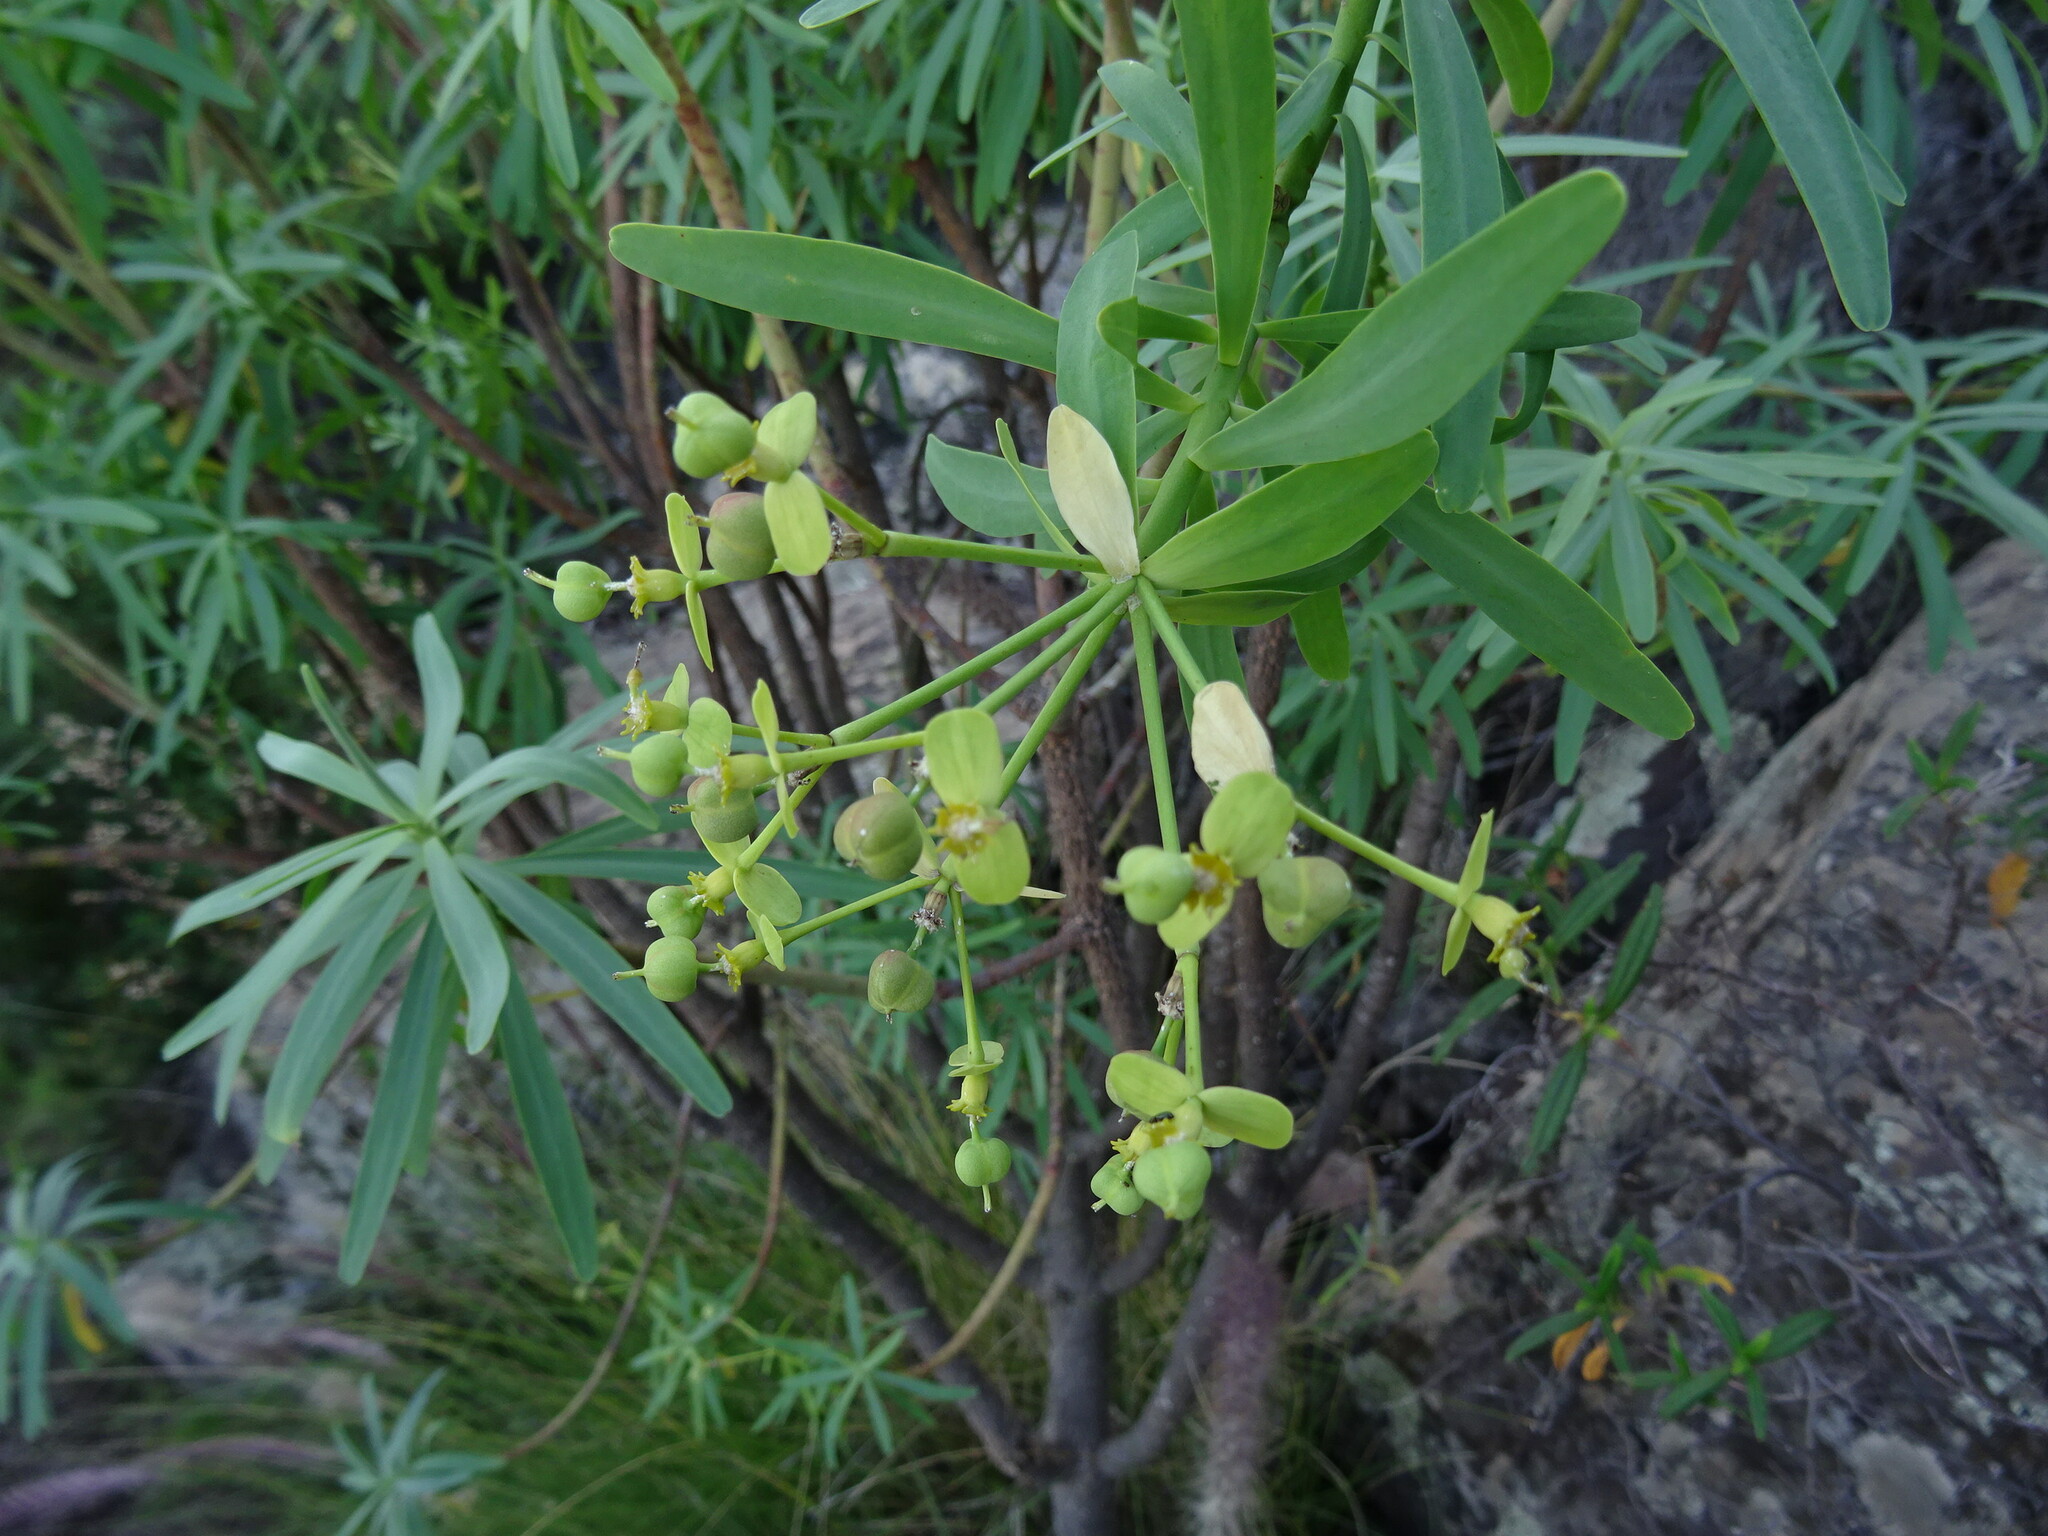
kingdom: Plantae
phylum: Tracheophyta
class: Magnoliopsida
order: Malpighiales
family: Euphorbiaceae
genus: Euphorbia
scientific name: Euphorbia regis-jubae
